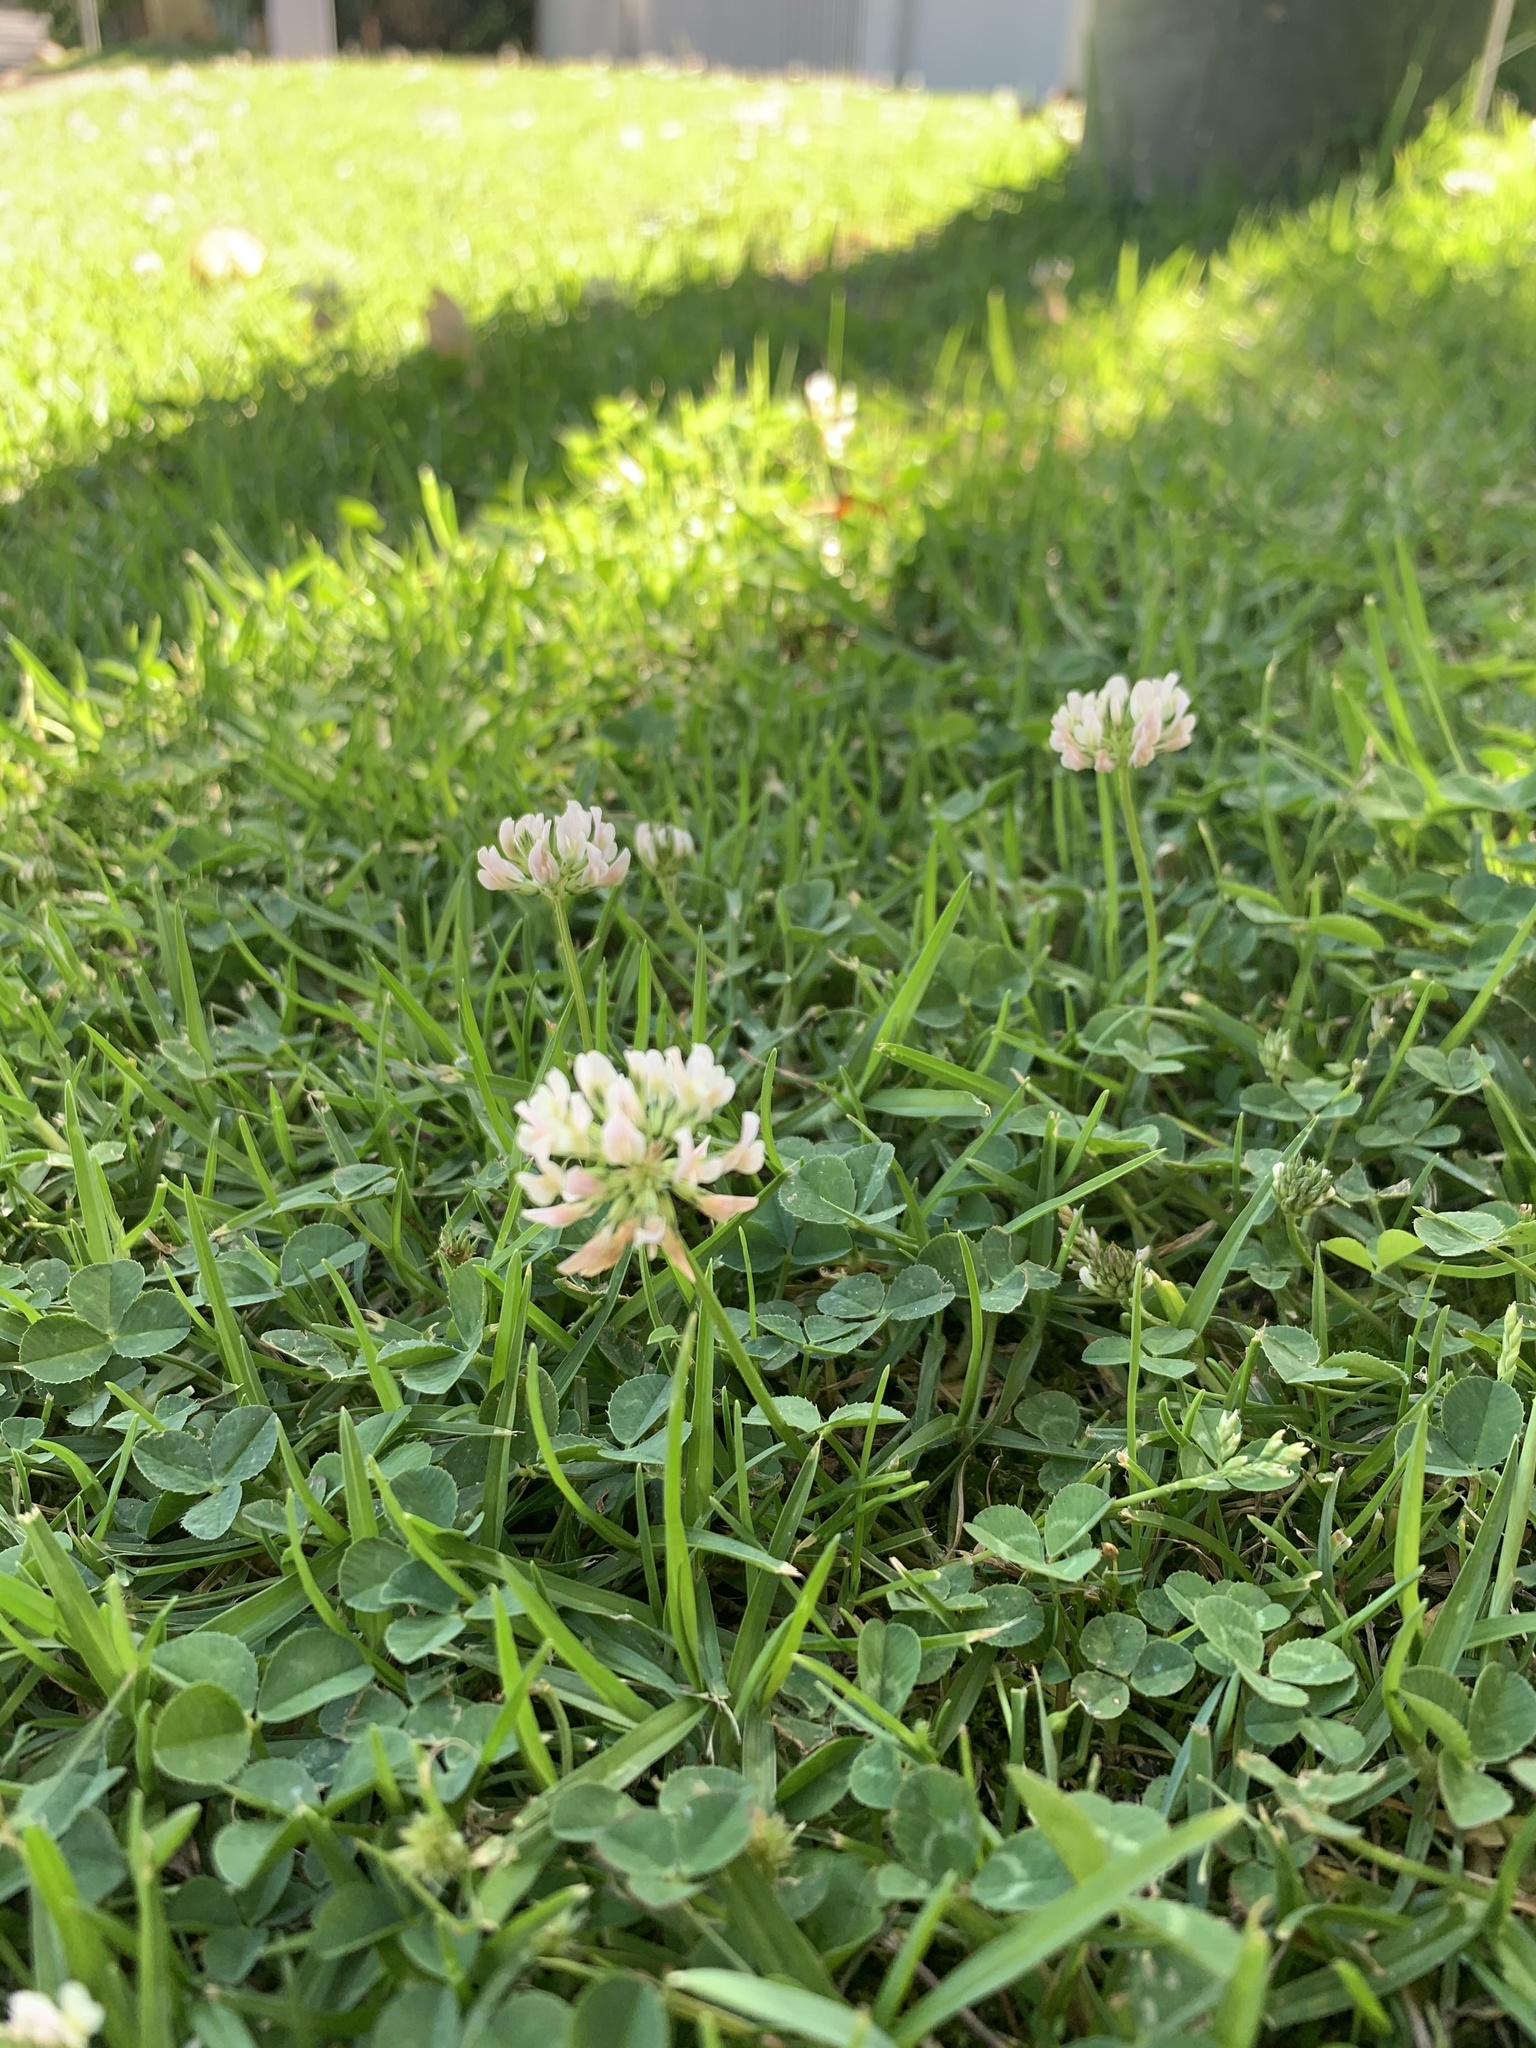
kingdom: Plantae
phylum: Tracheophyta
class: Magnoliopsida
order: Fabales
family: Fabaceae
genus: Trifolium
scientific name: Trifolium repens
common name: White clover
